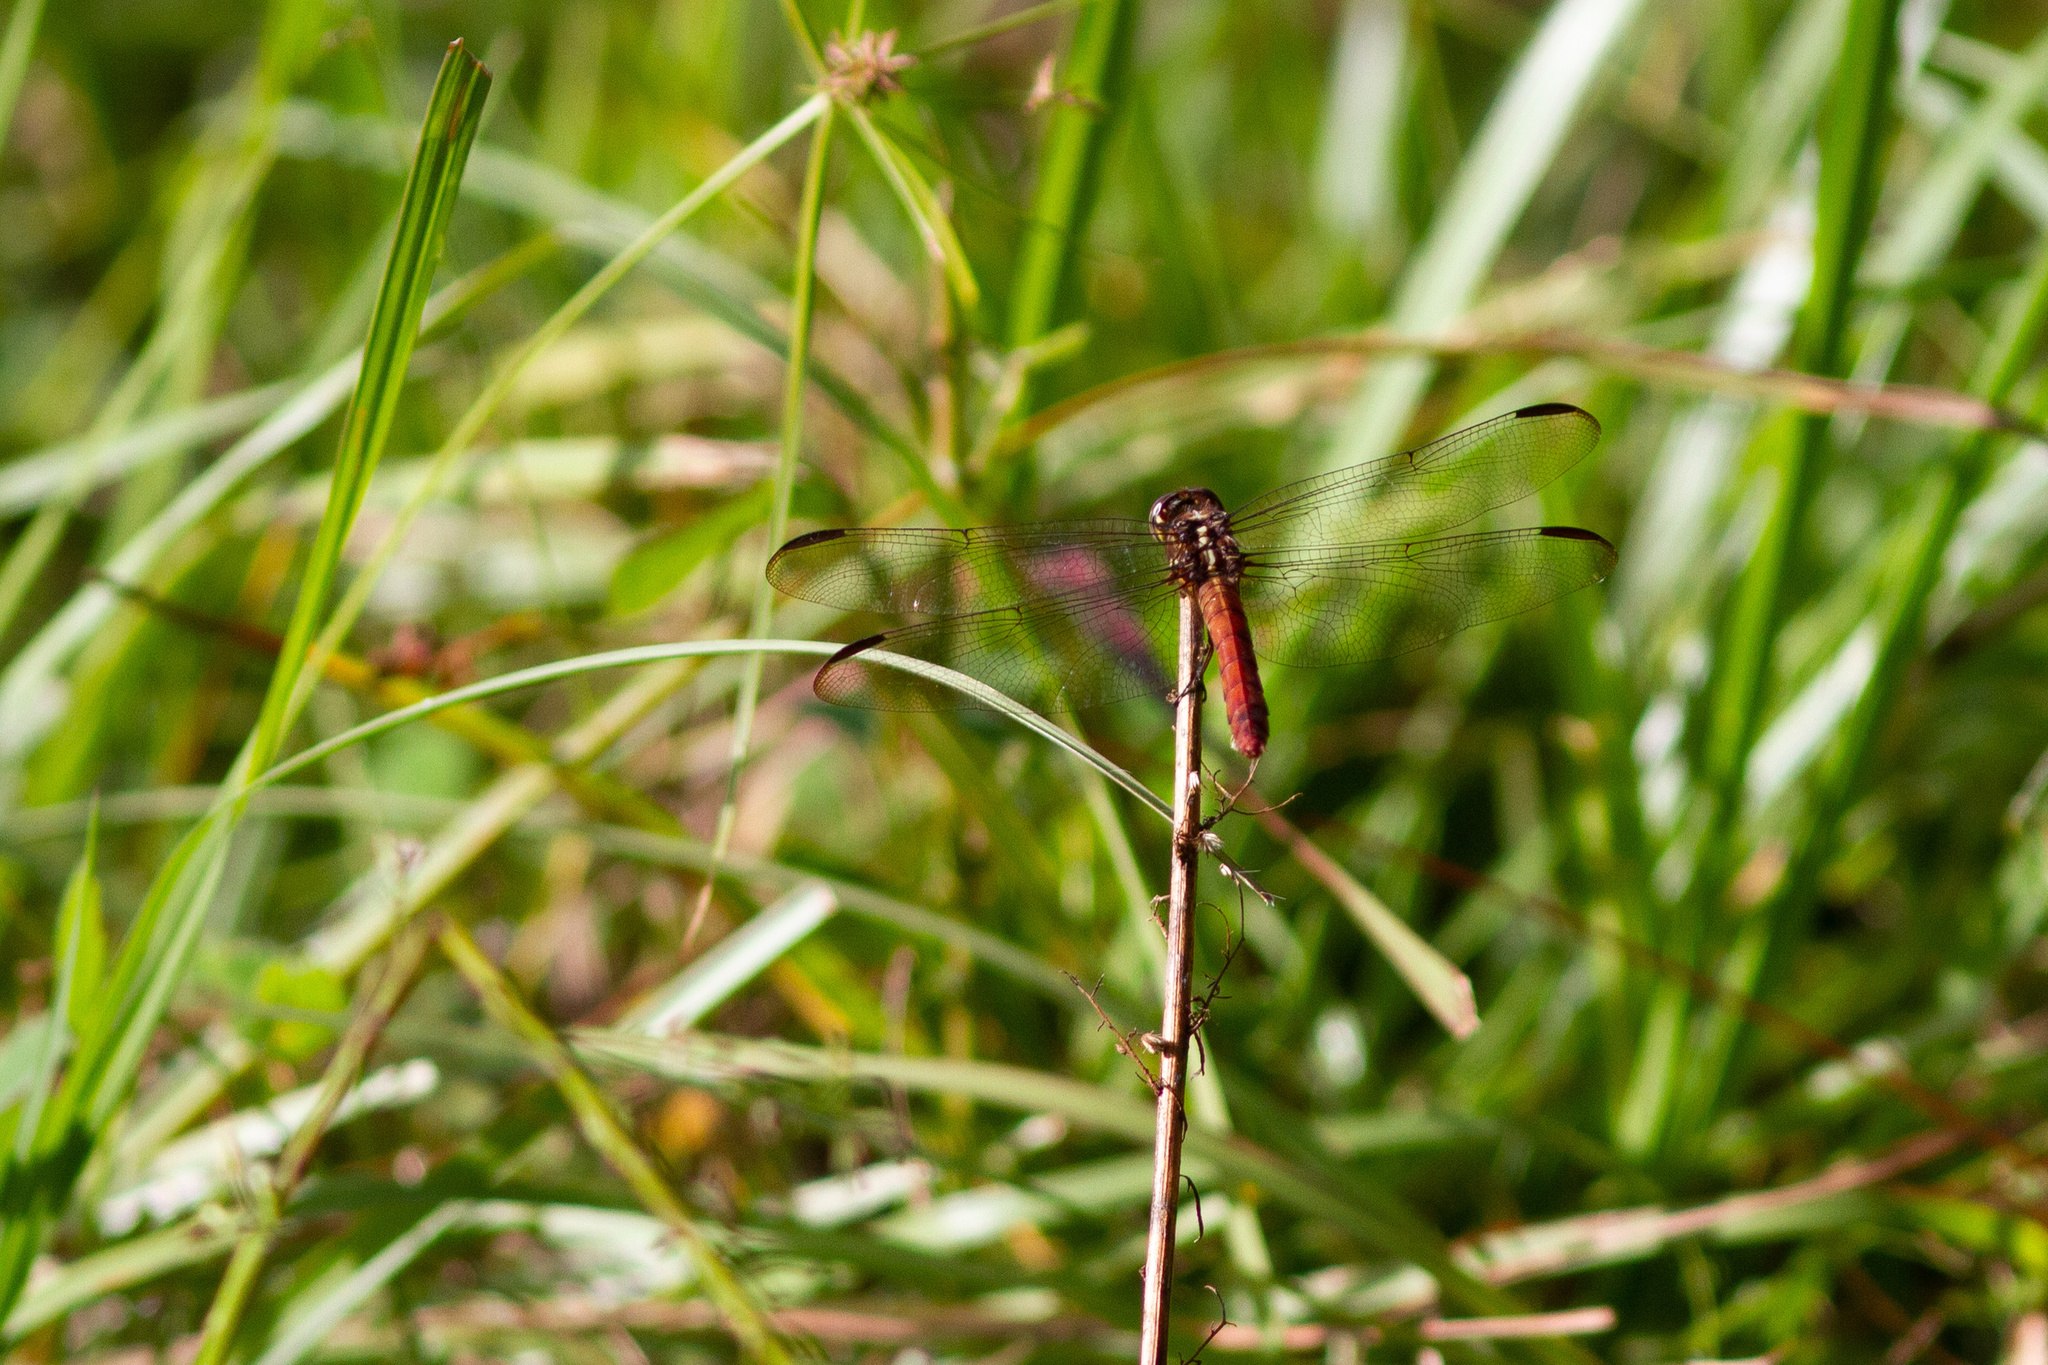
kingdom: Animalia
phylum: Arthropoda
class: Insecta
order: Odonata
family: Libellulidae
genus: Orthemis
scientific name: Orthemis ferruginea
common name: Roseate skimmer
